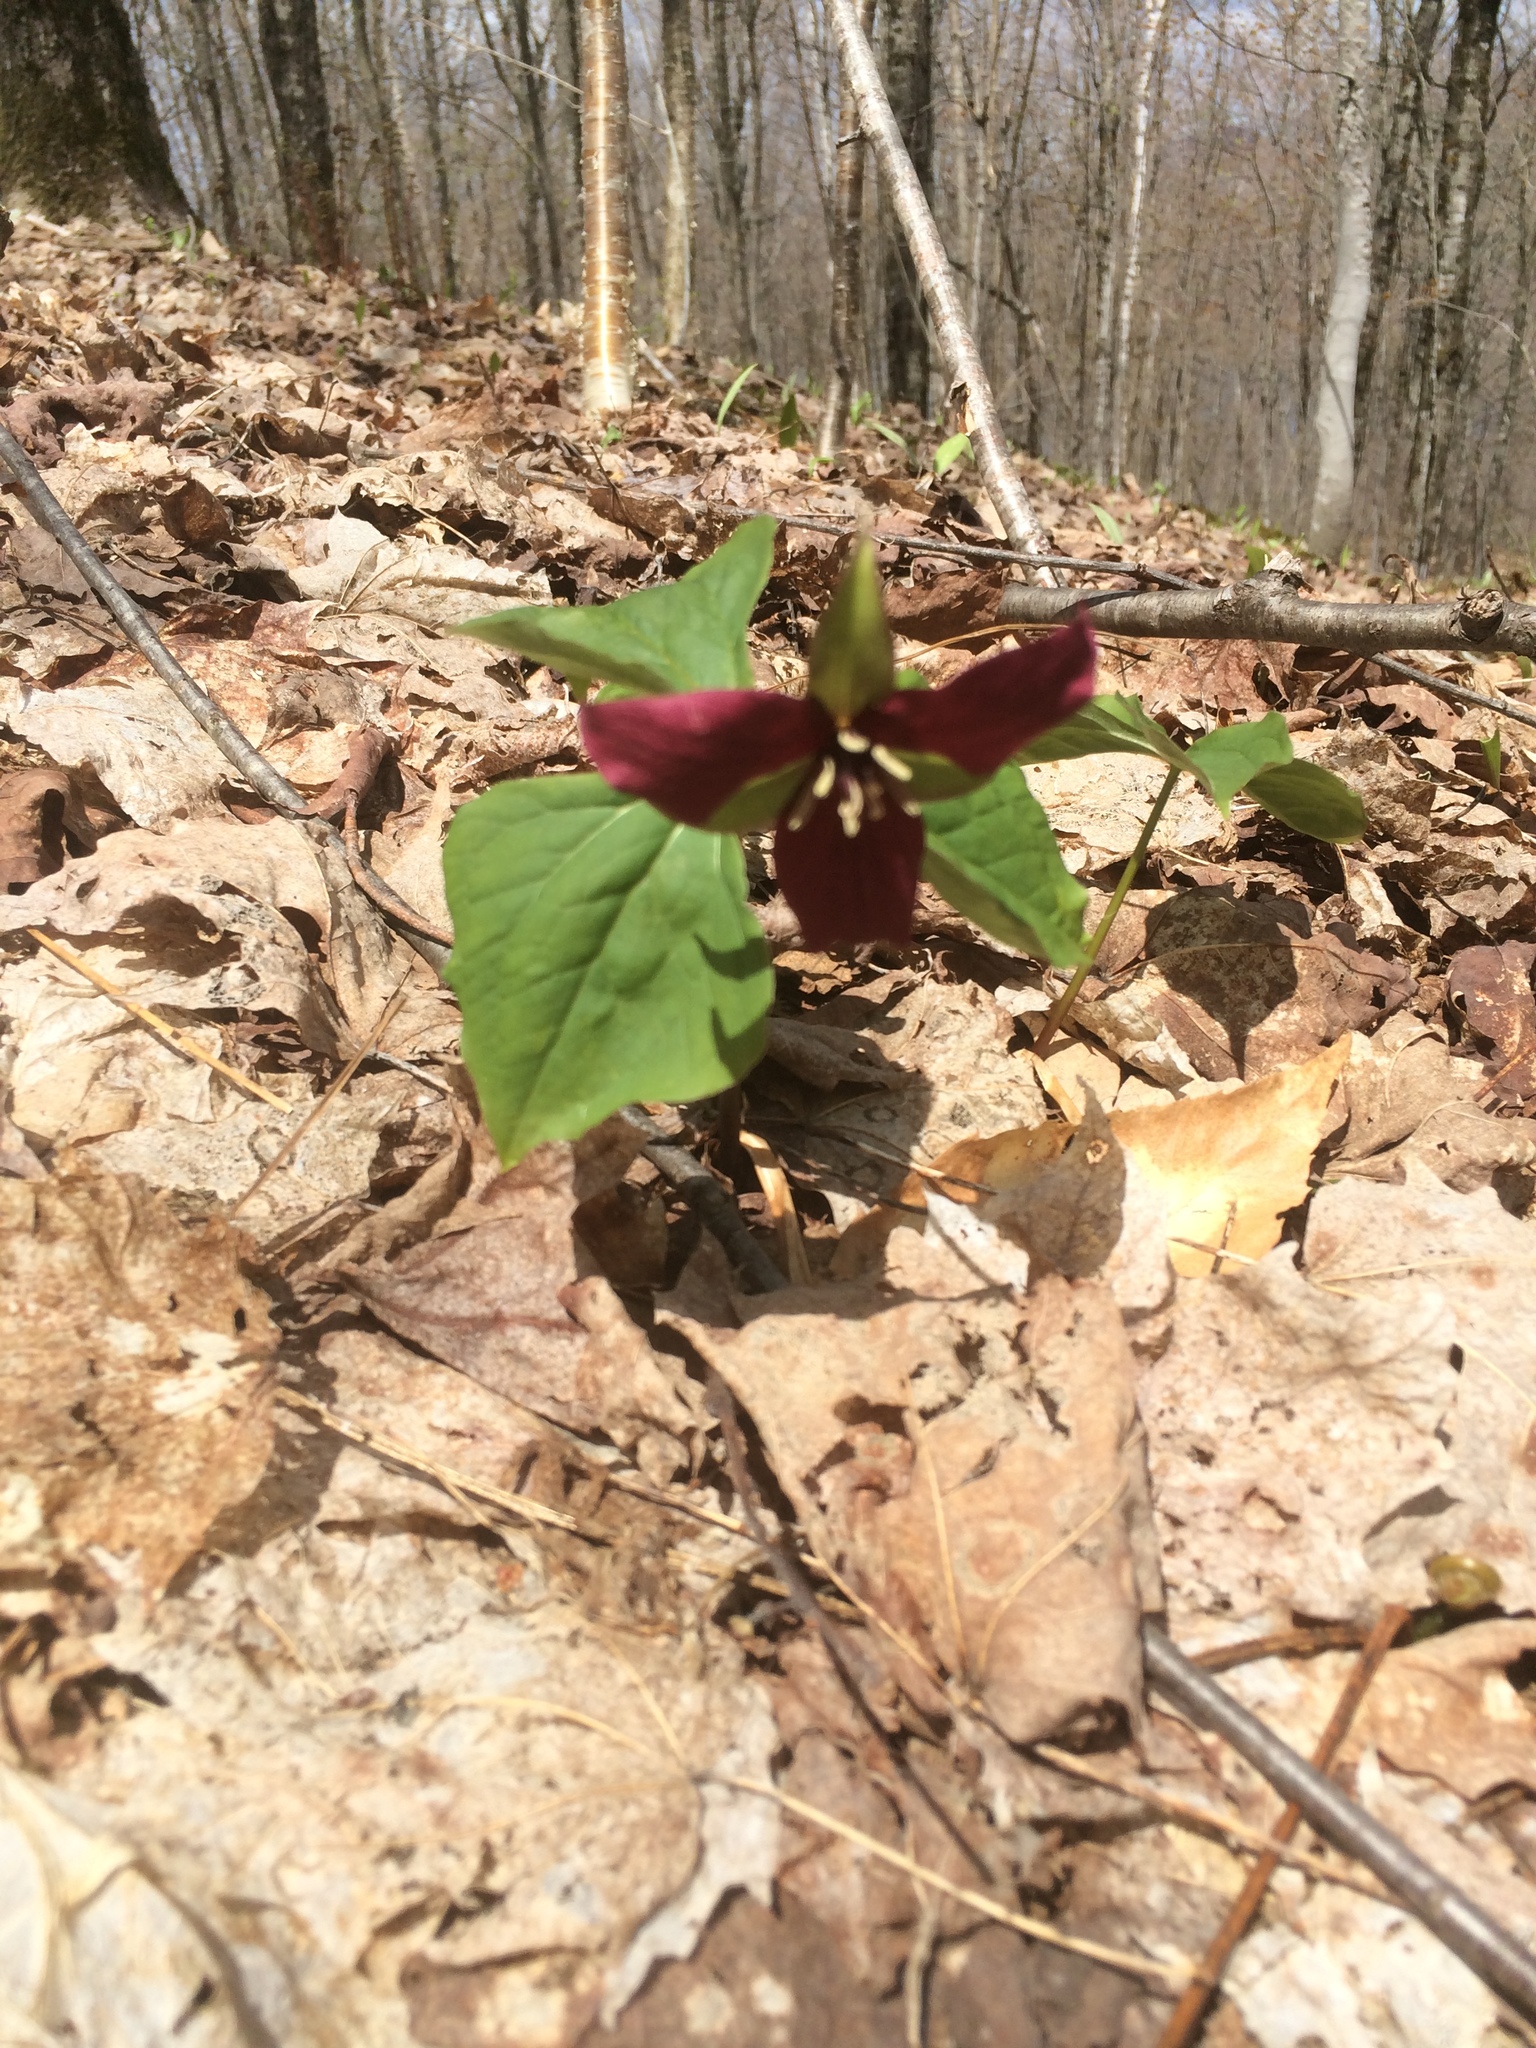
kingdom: Plantae
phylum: Tracheophyta
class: Liliopsida
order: Liliales
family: Melanthiaceae
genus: Trillium
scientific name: Trillium erectum
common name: Purple trillium
